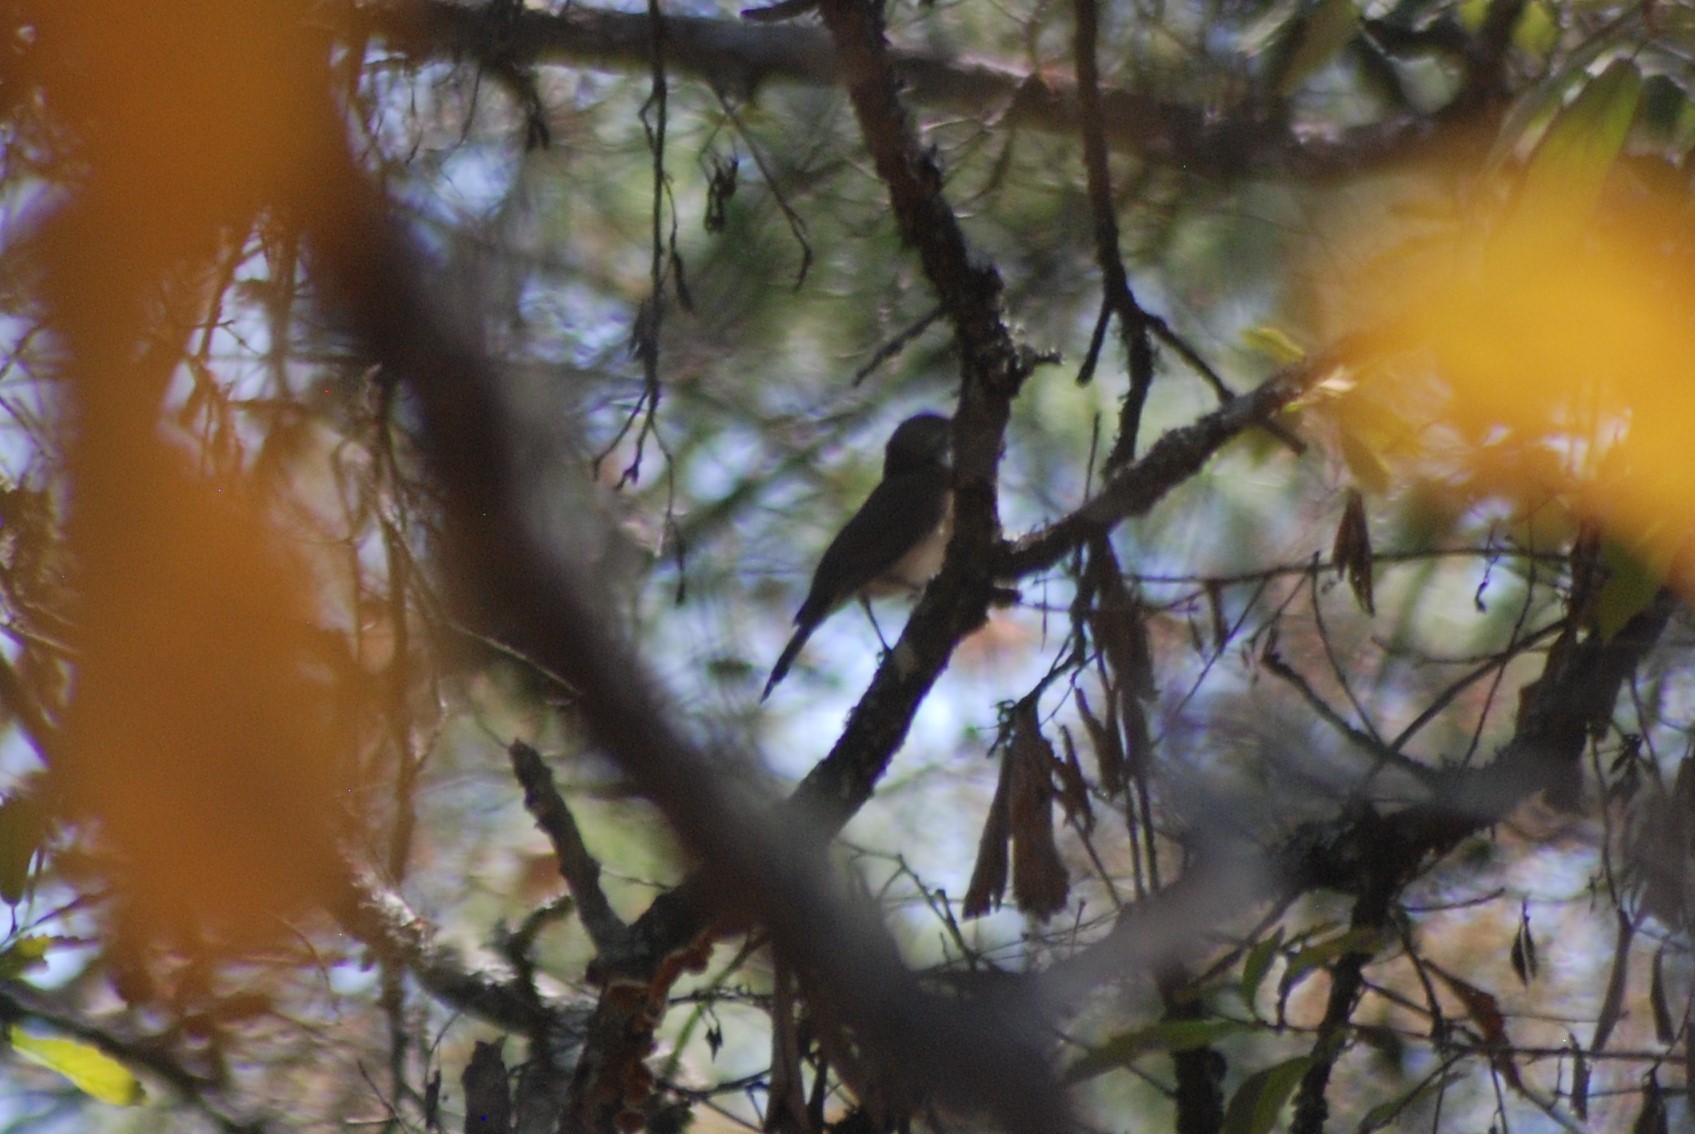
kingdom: Animalia
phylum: Chordata
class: Aves
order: Passeriformes
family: Turdidae
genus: Turdus
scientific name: Turdus assimilis
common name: White-throated thrush
